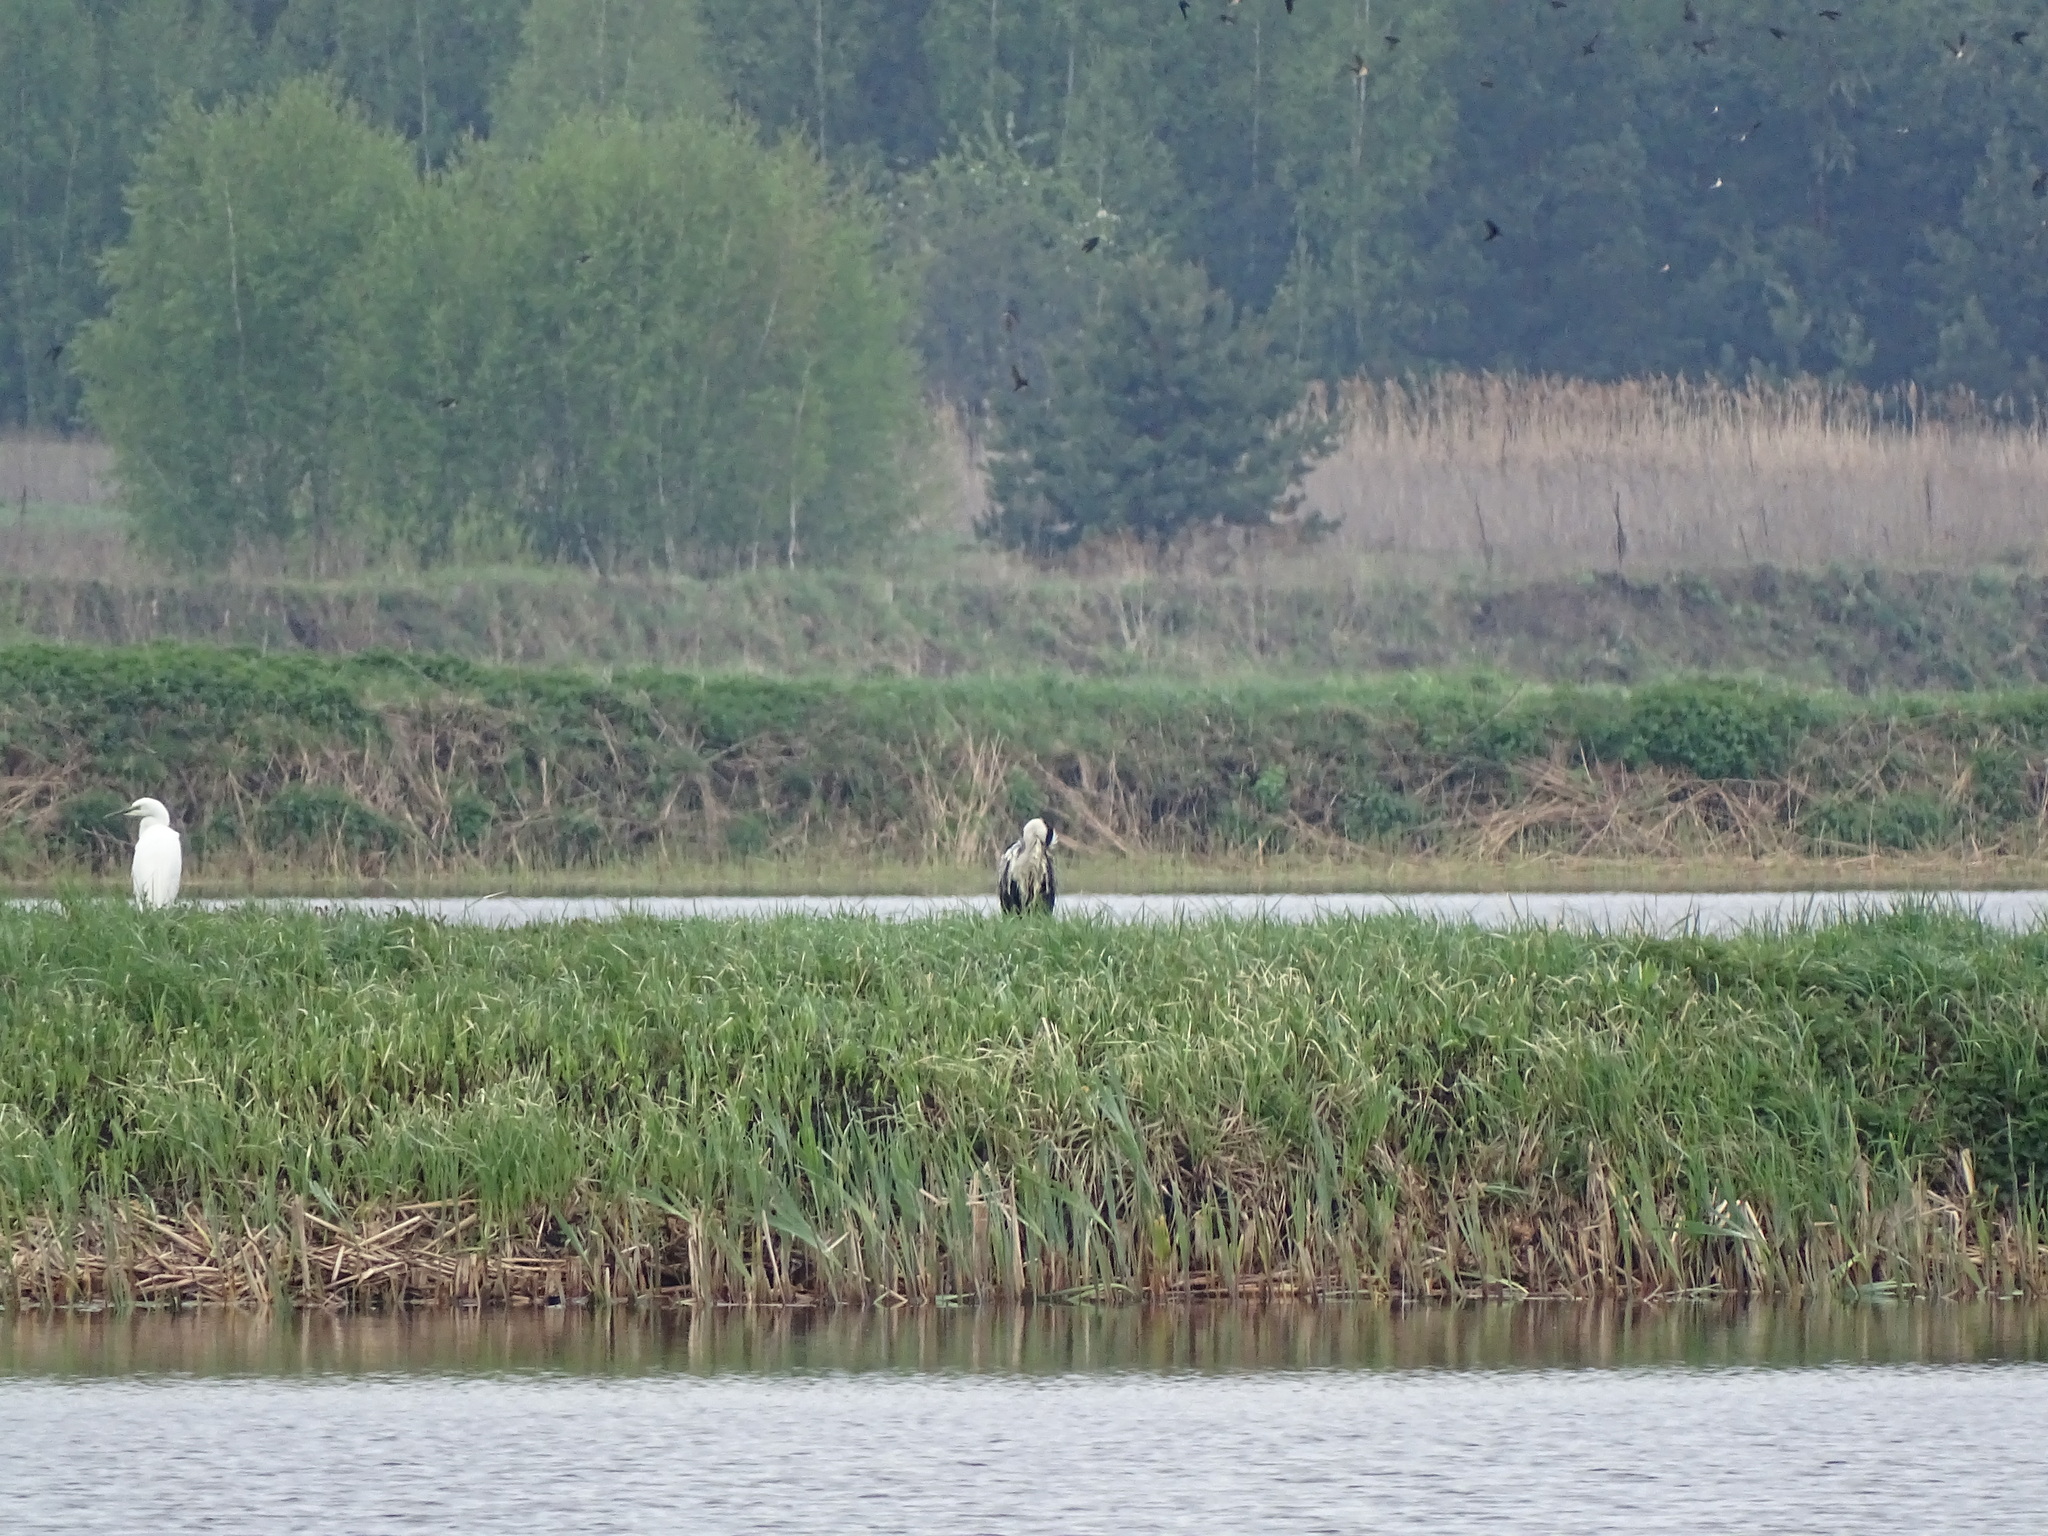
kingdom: Animalia
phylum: Chordata
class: Aves
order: Pelecaniformes
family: Ardeidae
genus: Ardea
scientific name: Ardea cinerea
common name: Grey heron
